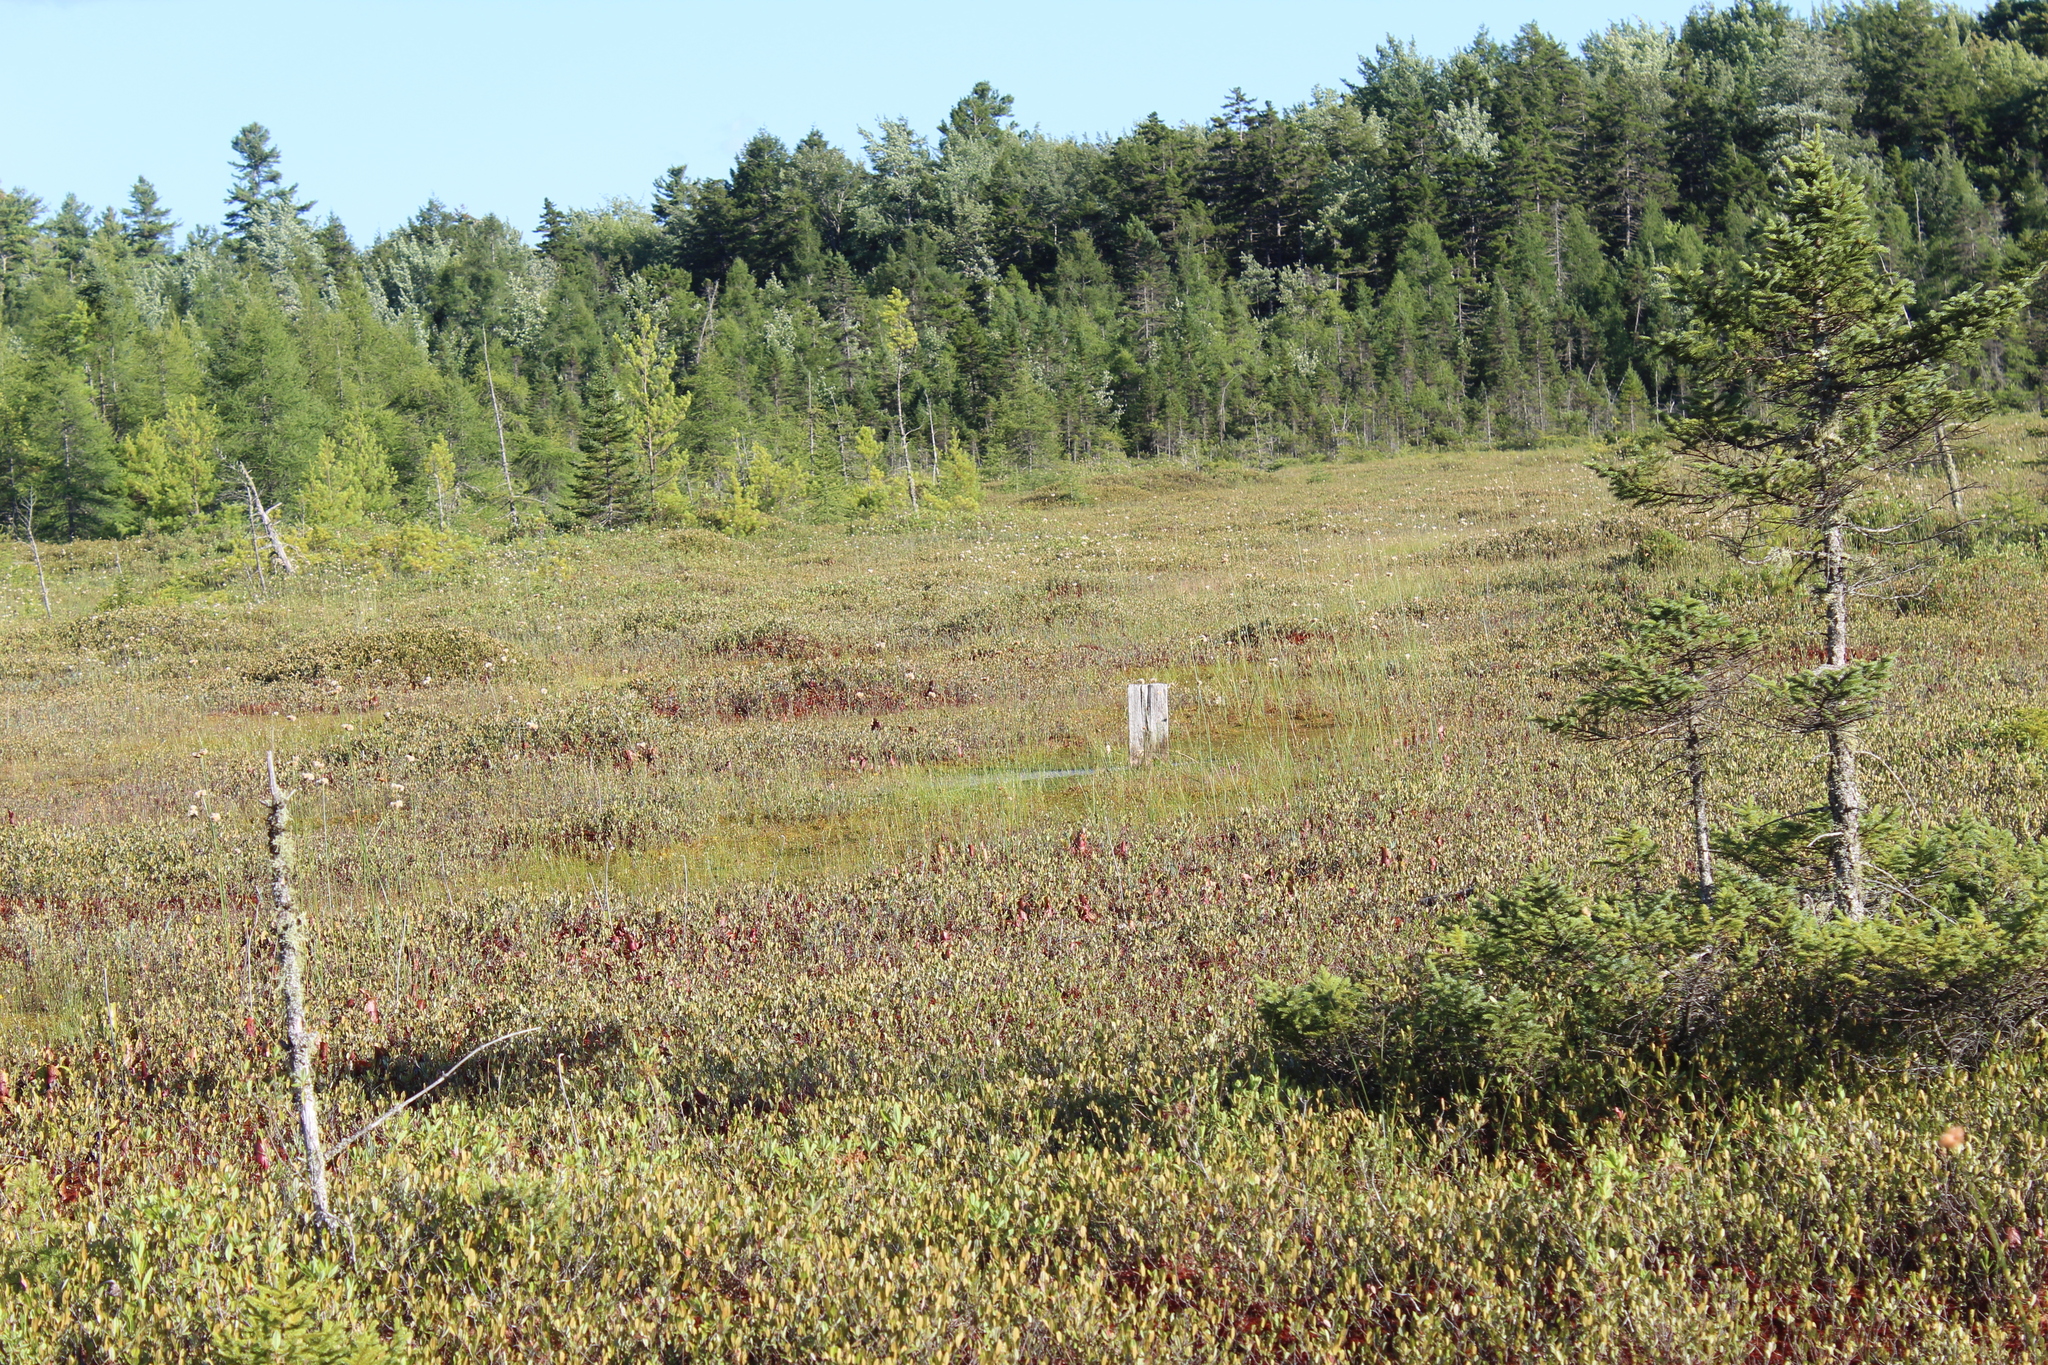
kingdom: Plantae
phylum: Tracheophyta
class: Magnoliopsida
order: Ericales
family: Ericaceae
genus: Chamaedaphne
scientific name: Chamaedaphne calyculata
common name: Leatherleaf
